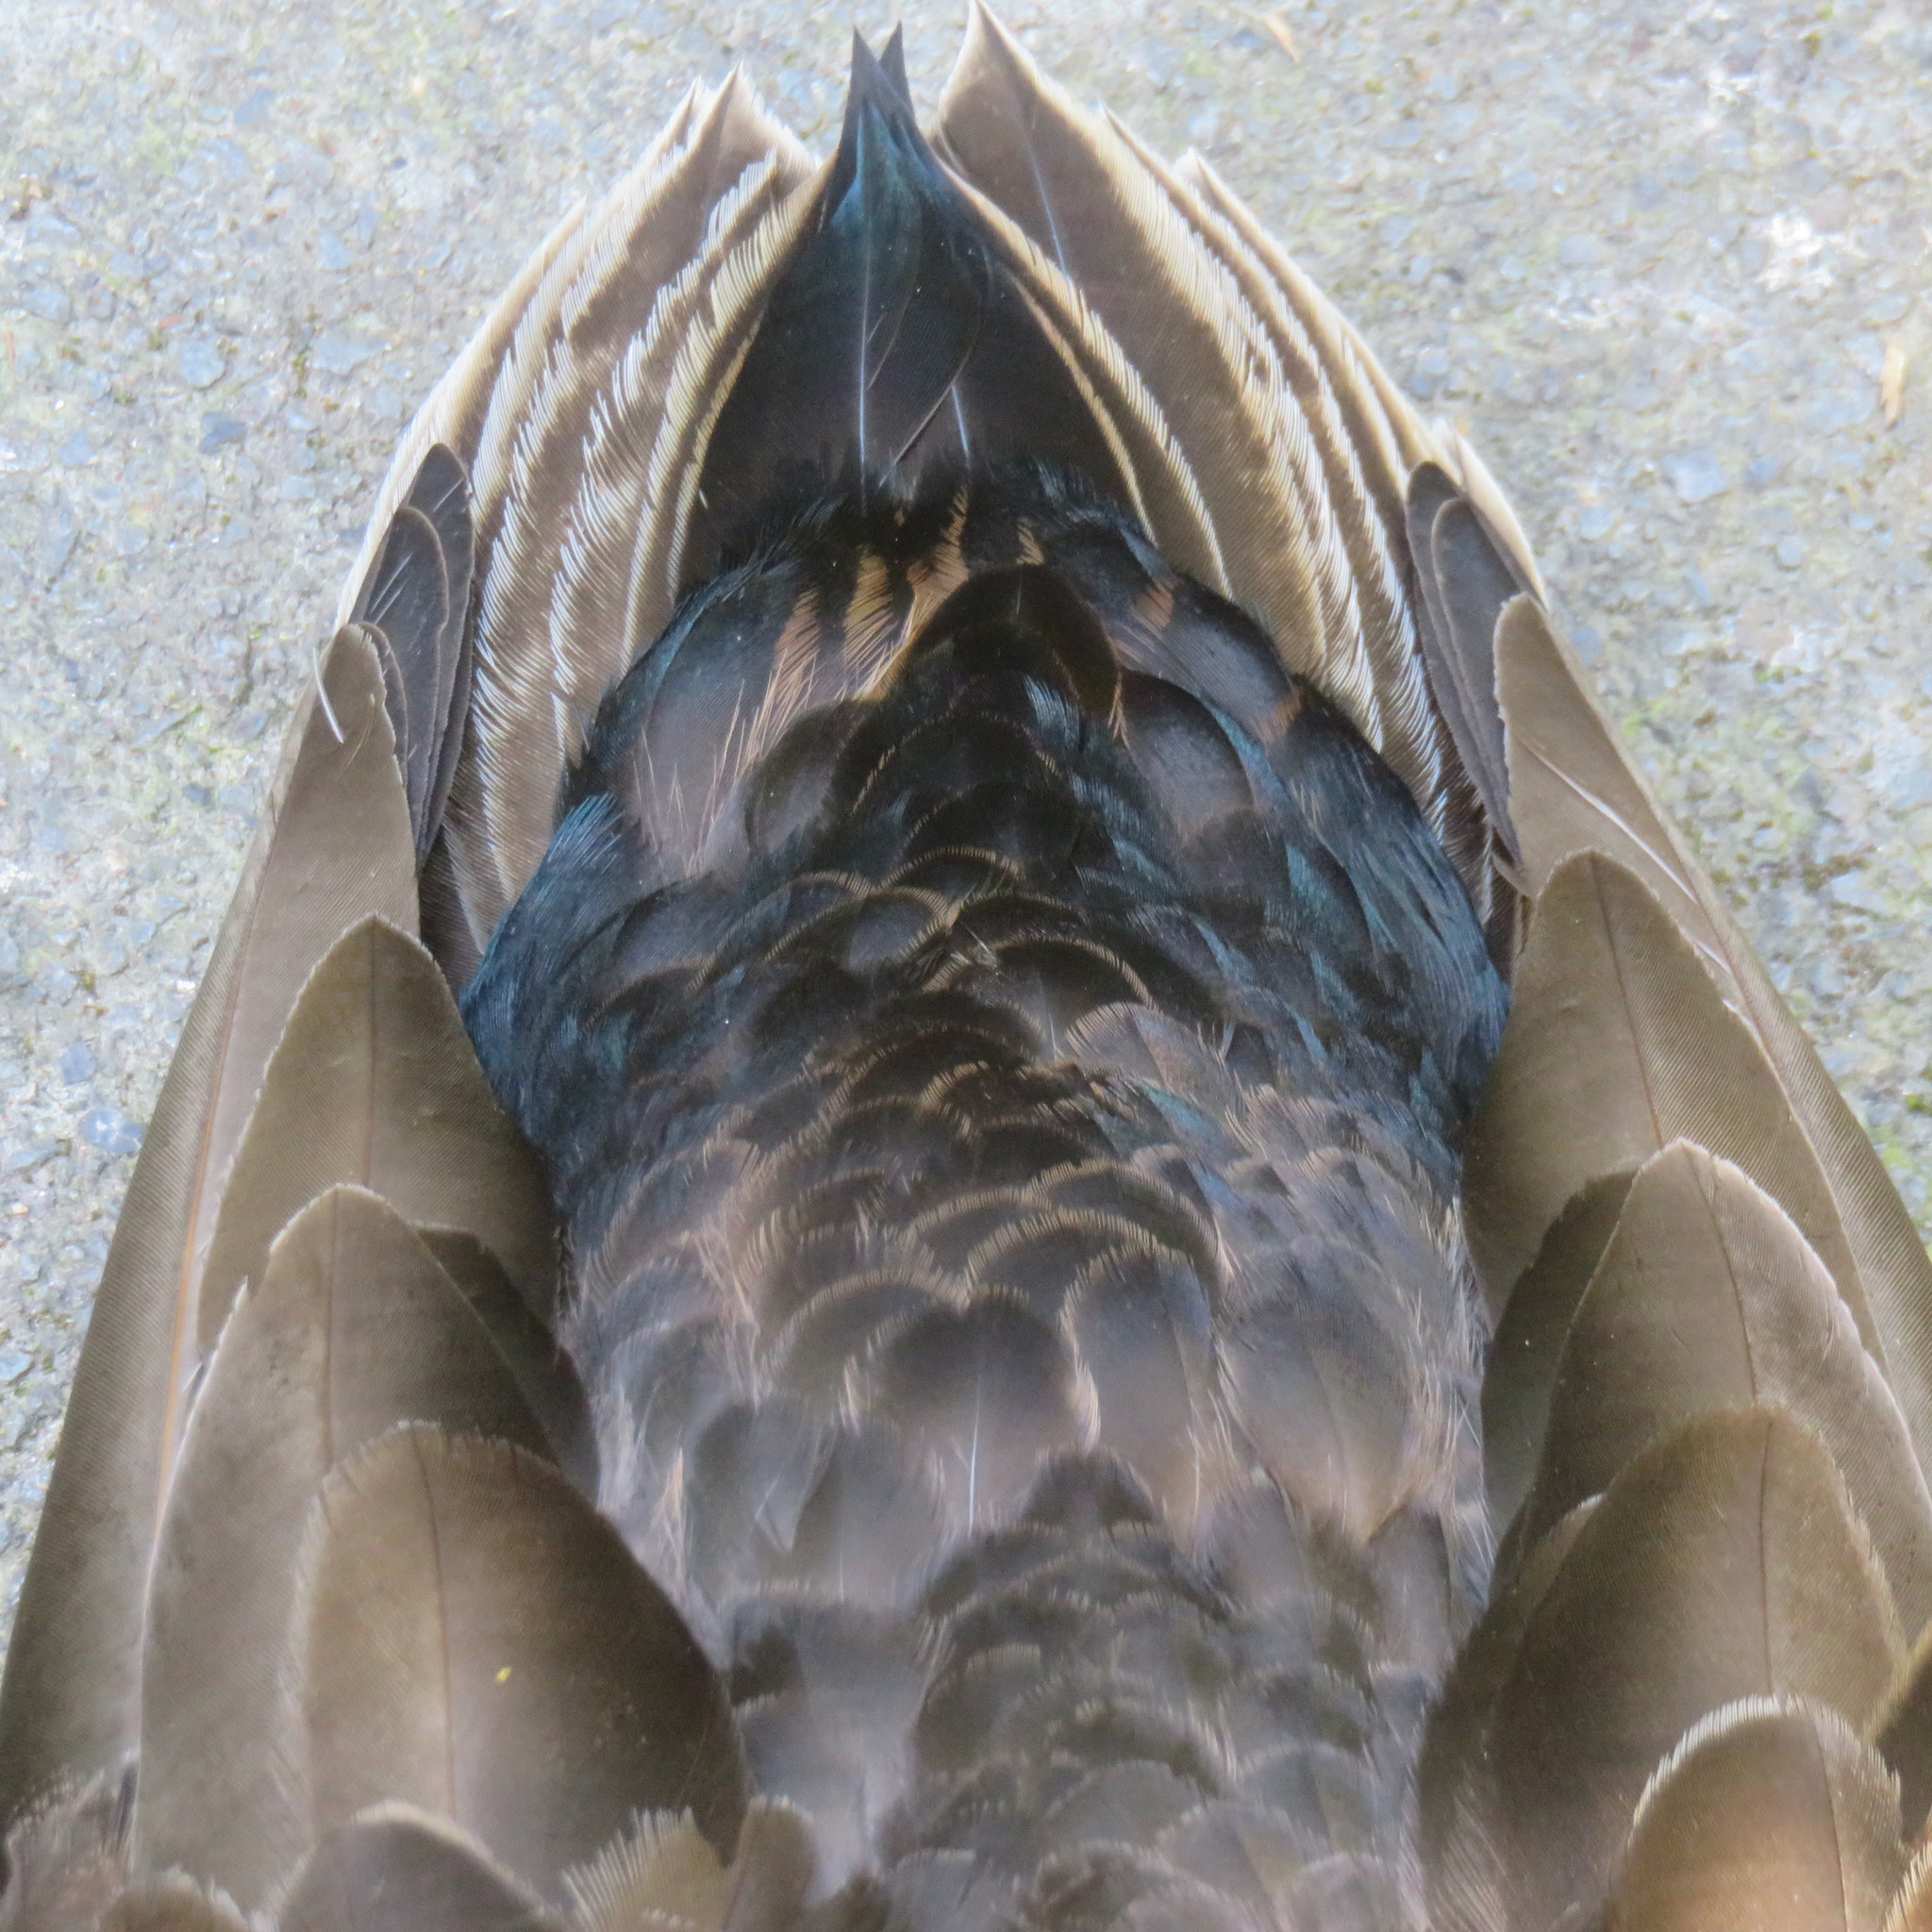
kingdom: Animalia
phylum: Chordata
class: Aves
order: Anseriformes
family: Anatidae
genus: Anas
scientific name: Anas
